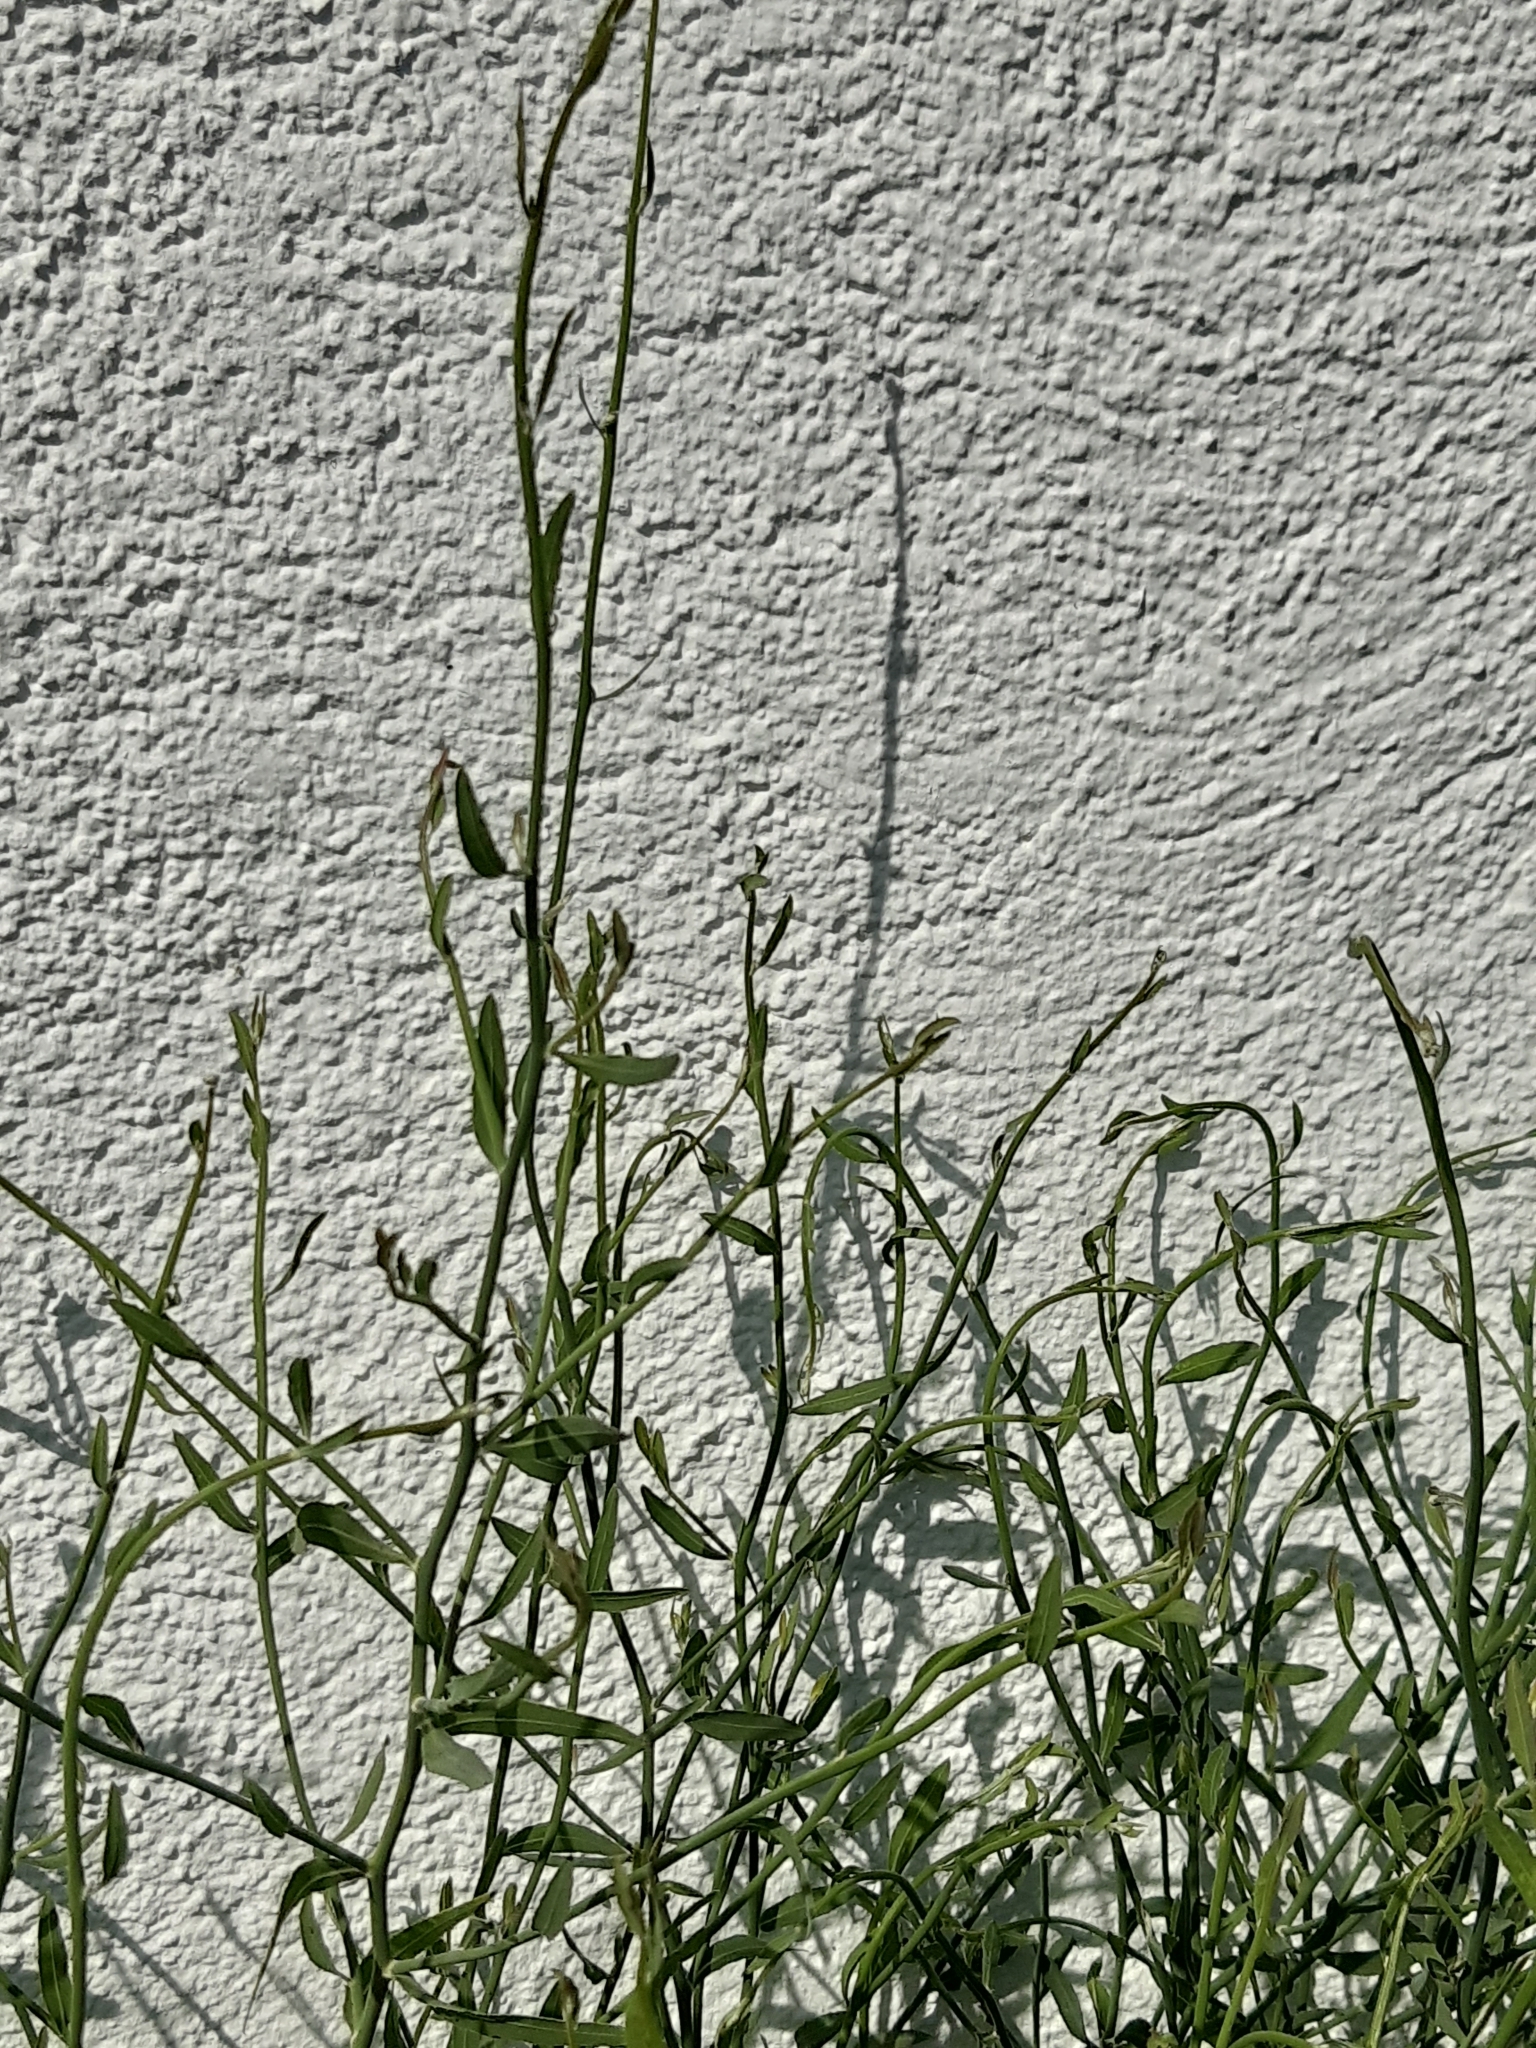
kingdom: Plantae
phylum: Tracheophyta
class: Magnoliopsida
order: Asterales
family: Asteraceae
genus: Chondrilla
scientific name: Chondrilla juncea
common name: Skeleton weed
